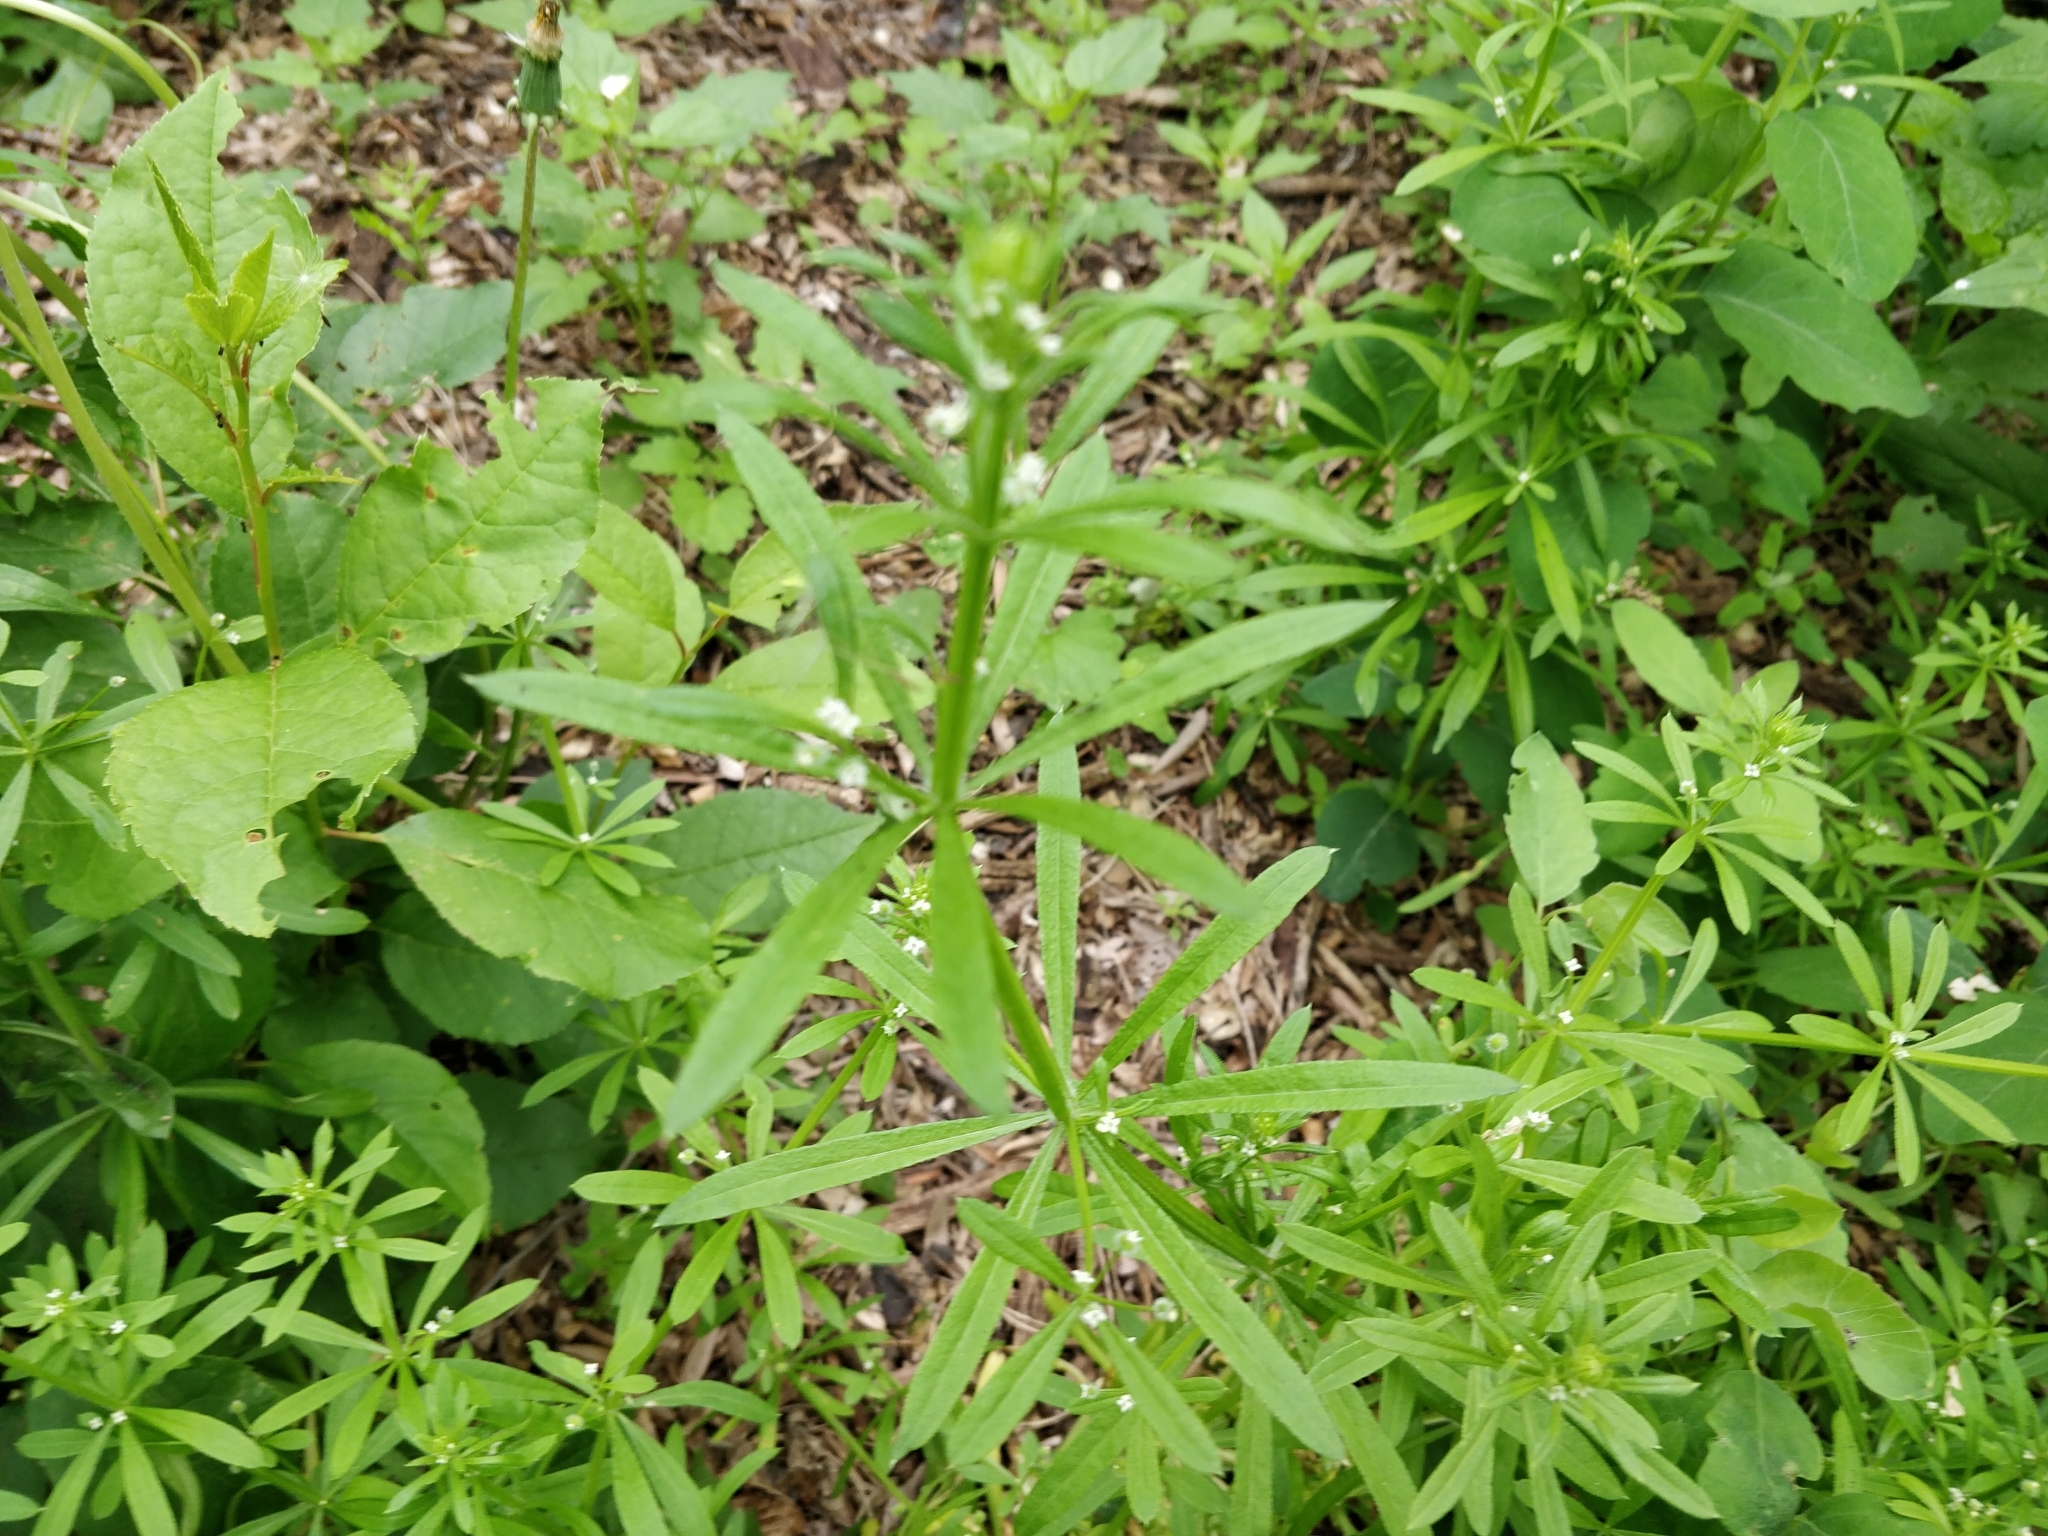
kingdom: Plantae
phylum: Tracheophyta
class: Magnoliopsida
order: Gentianales
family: Rubiaceae
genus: Galium
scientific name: Galium aparine
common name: Cleavers
